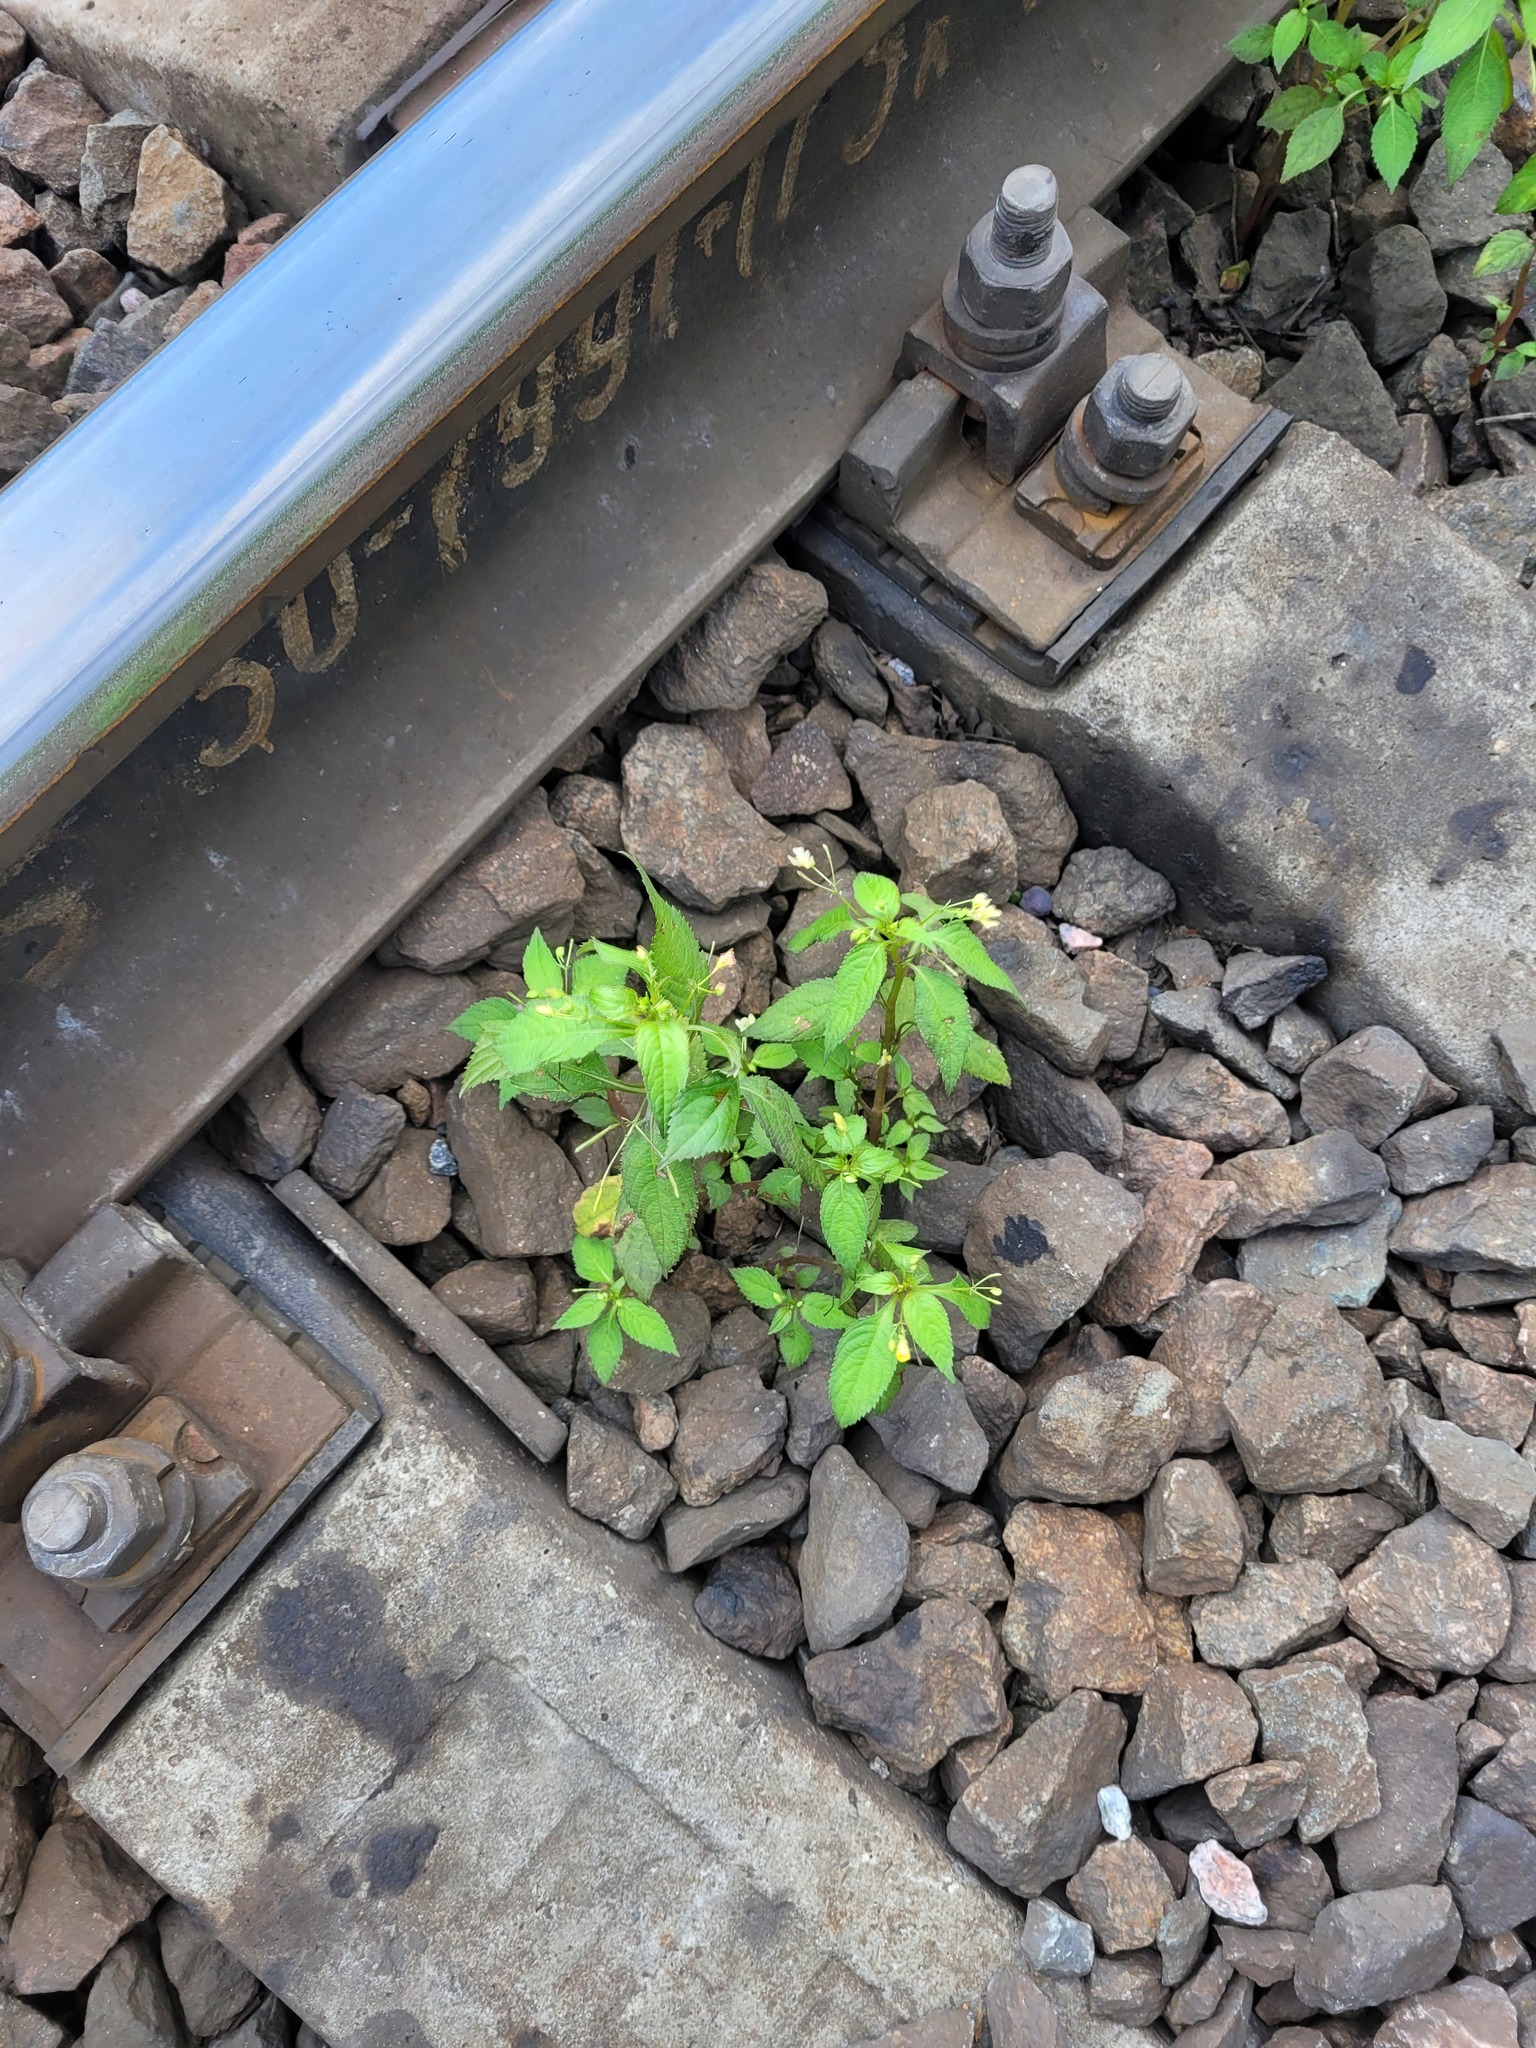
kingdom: Plantae
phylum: Tracheophyta
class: Magnoliopsida
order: Ericales
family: Balsaminaceae
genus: Impatiens
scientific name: Impatiens parviflora
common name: Small balsam
